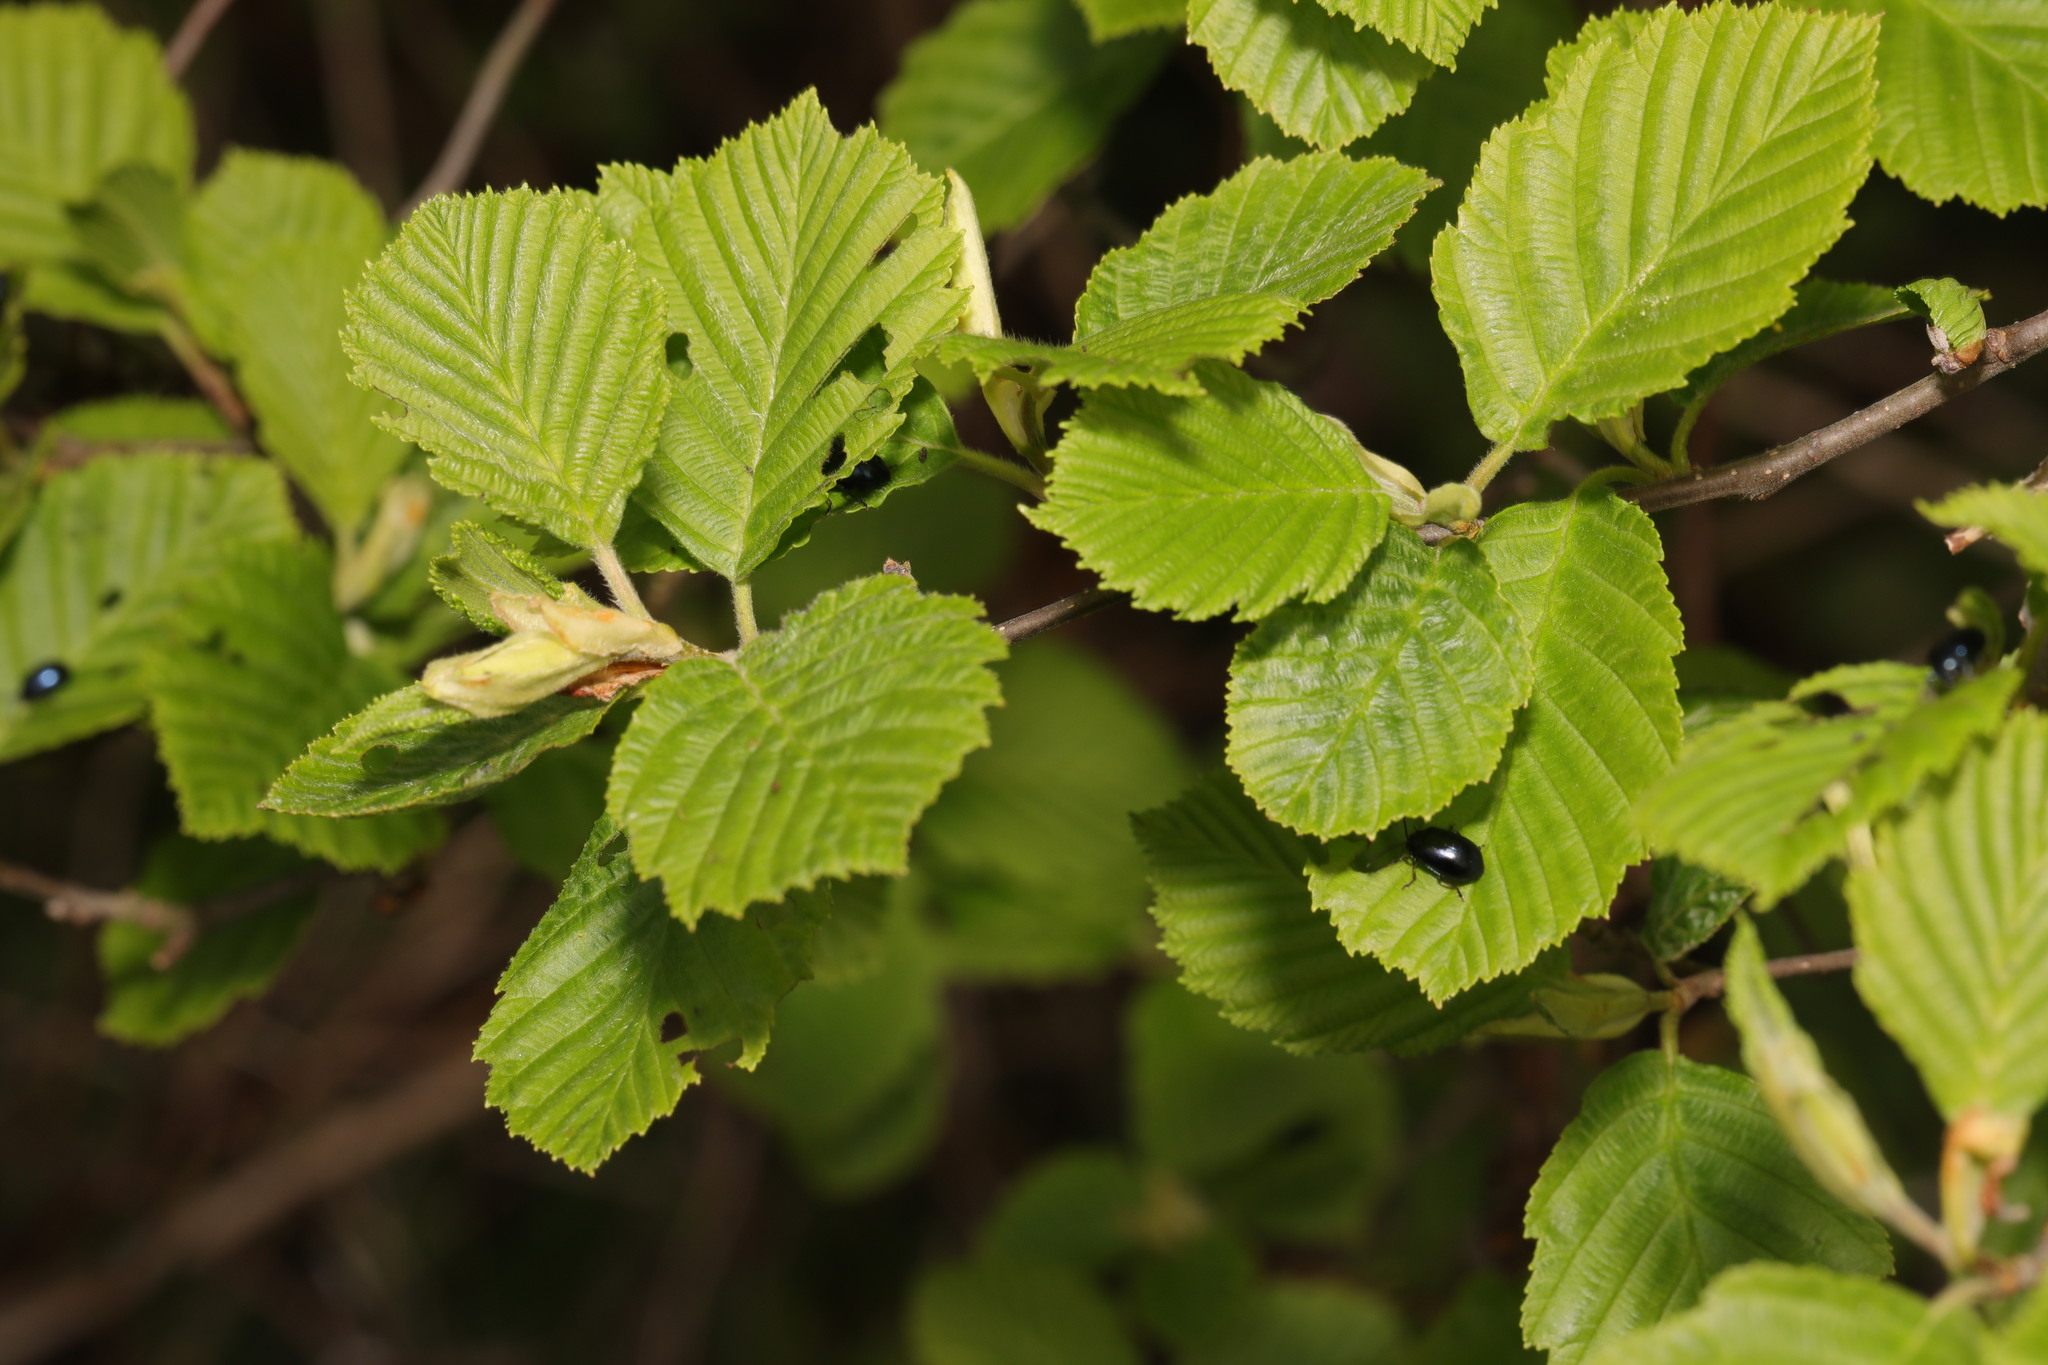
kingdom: Plantae
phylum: Tracheophyta
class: Magnoliopsida
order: Fagales
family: Betulaceae
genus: Alnus
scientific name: Alnus incana
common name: Grey alder
